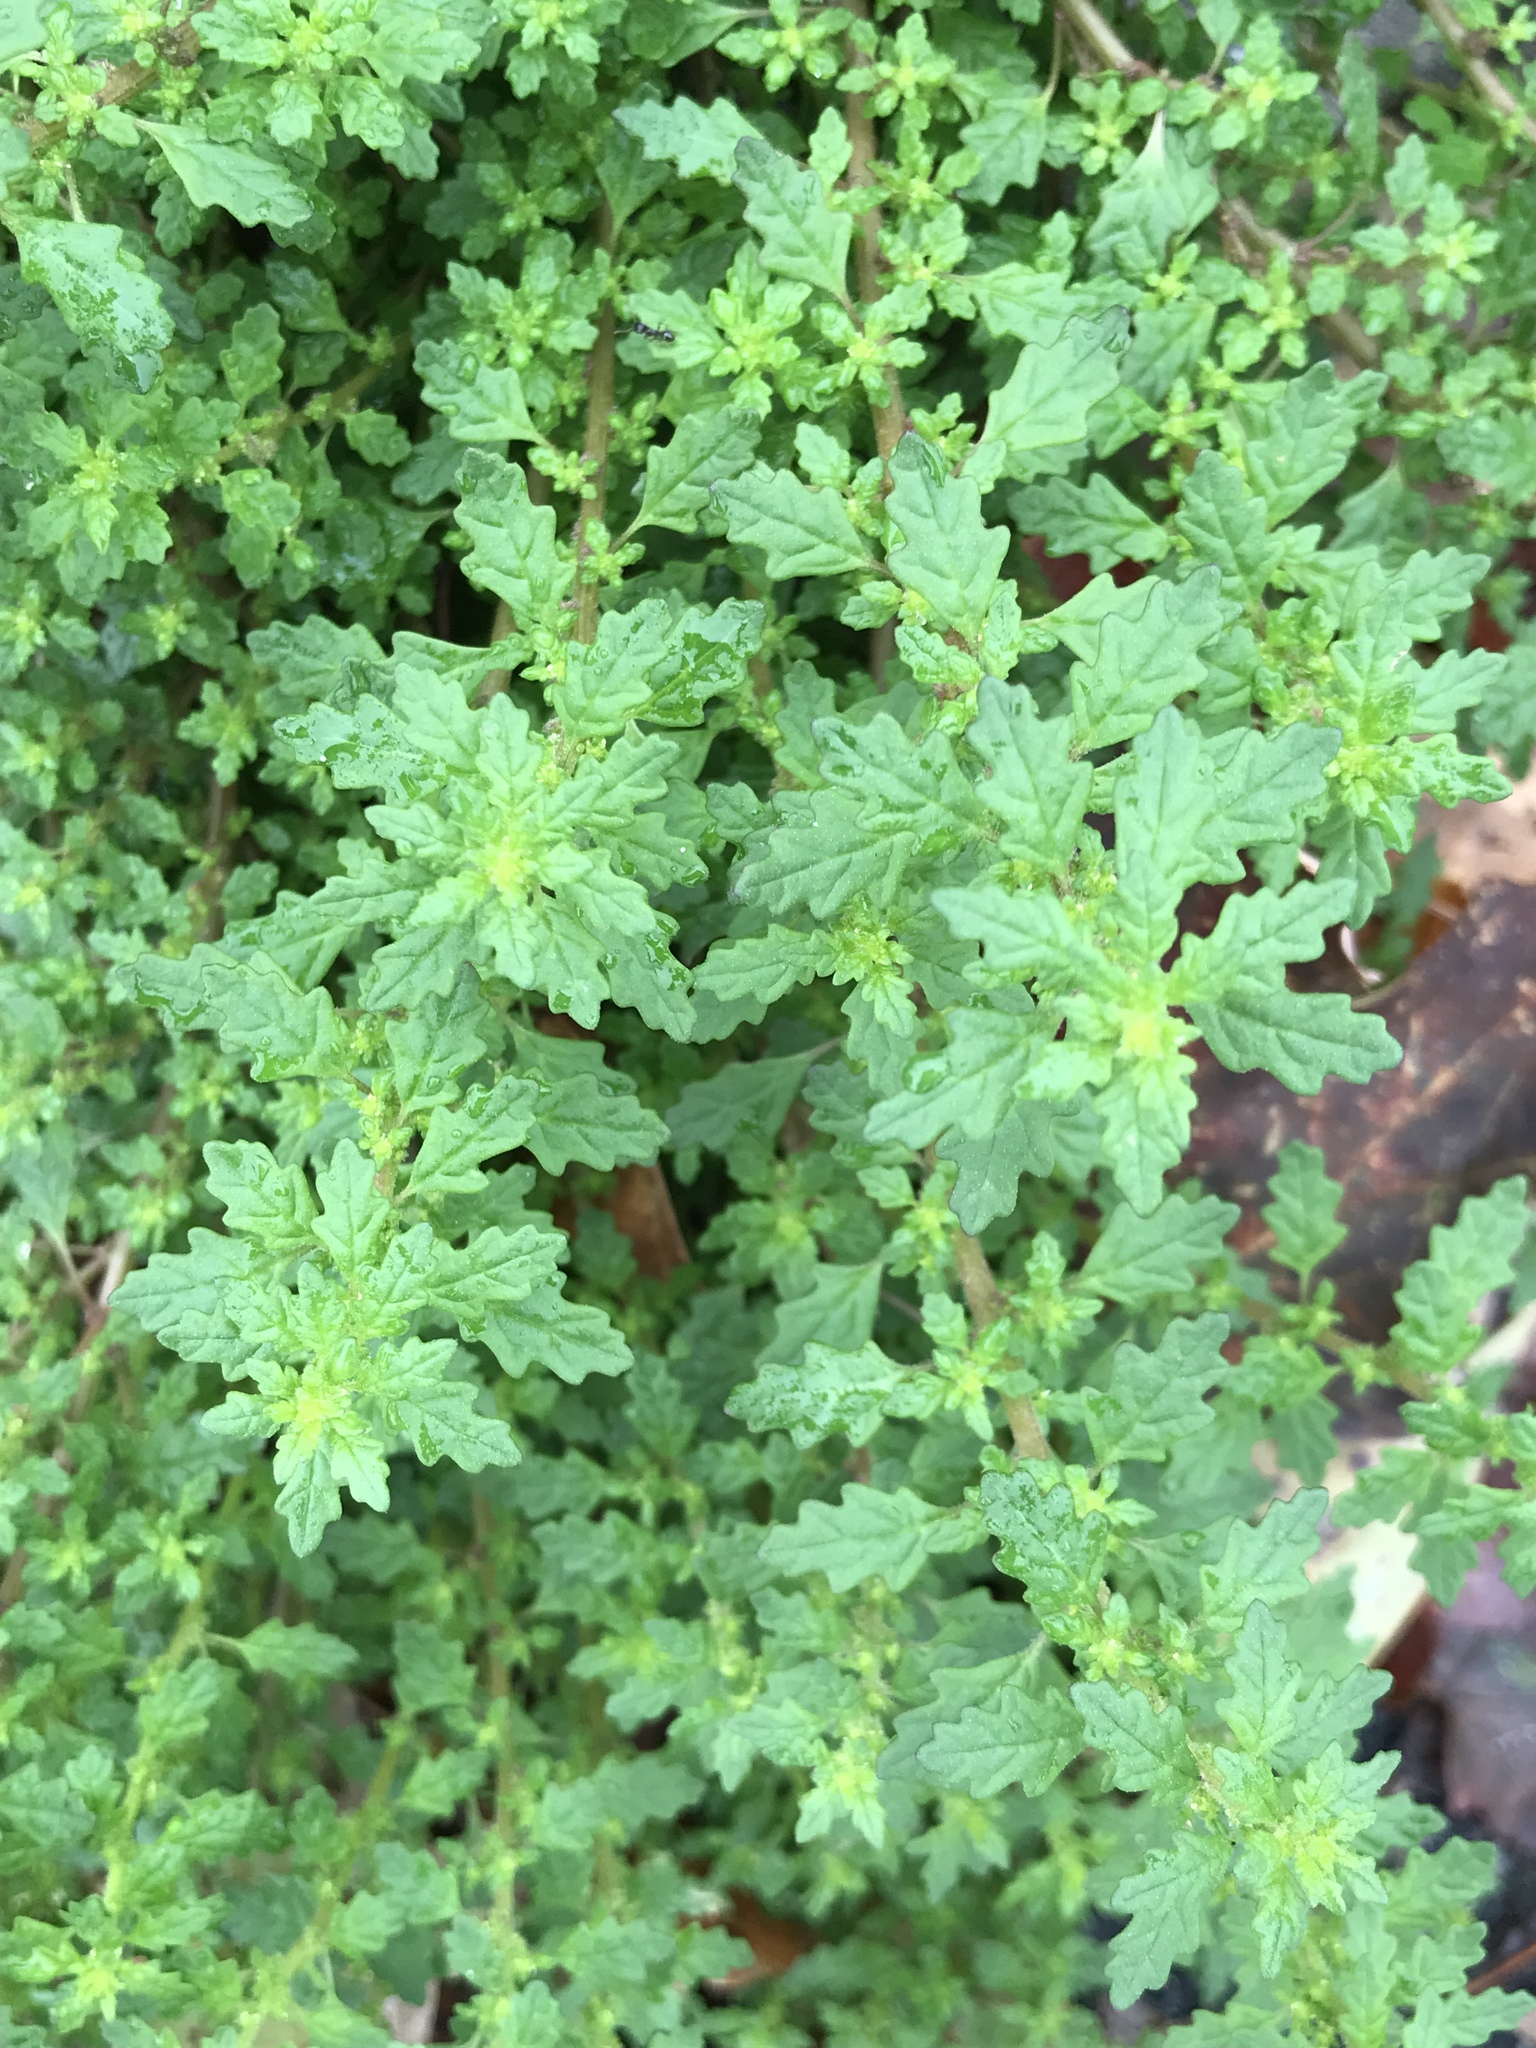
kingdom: Plantae
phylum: Tracheophyta
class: Magnoliopsida
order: Caryophyllales
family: Amaranthaceae
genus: Dysphania
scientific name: Dysphania pumilio
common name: Clammy goosefoot
